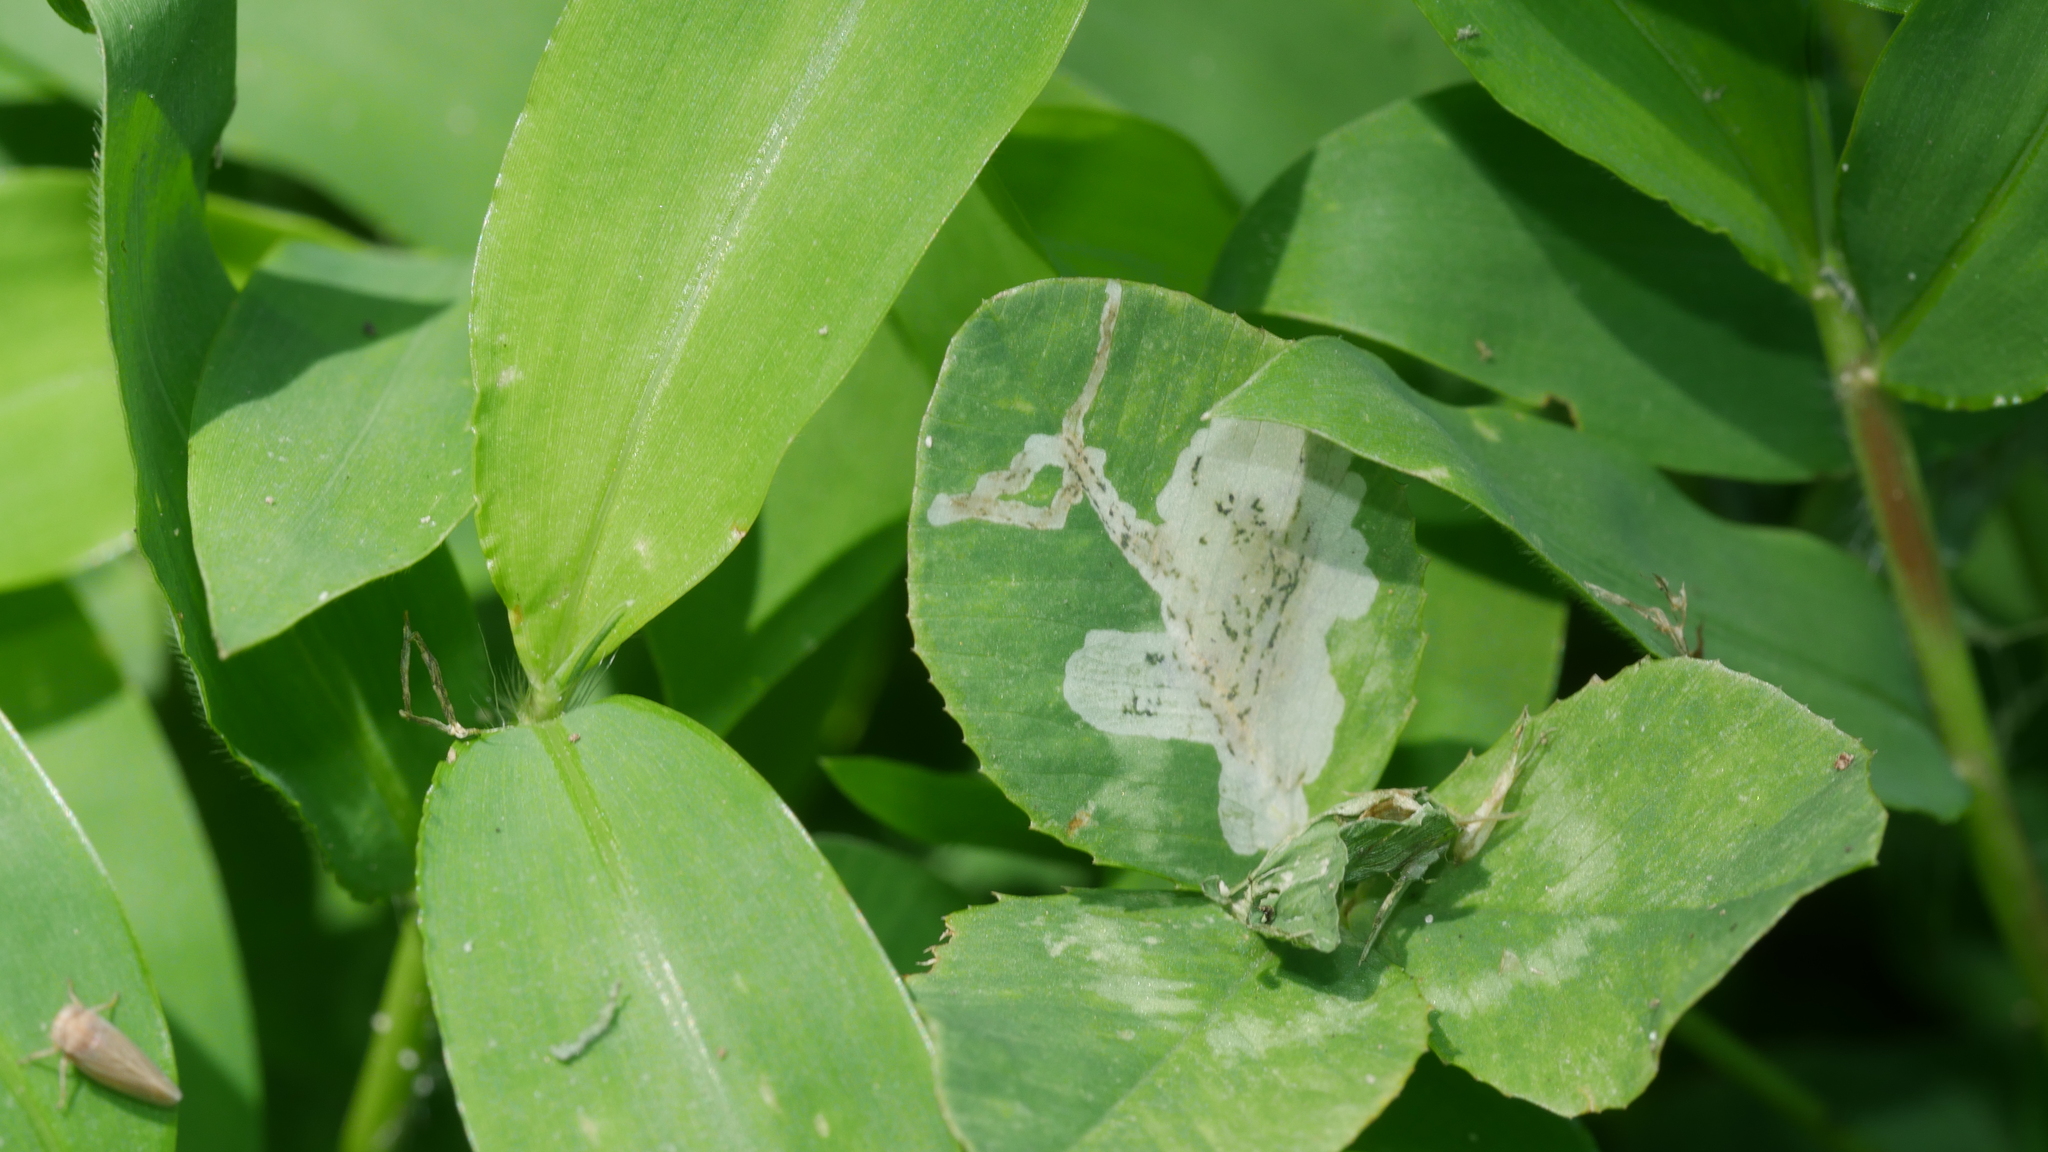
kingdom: Animalia
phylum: Arthropoda
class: Insecta
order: Diptera
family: Agromyzidae
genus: Liriomyza
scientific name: Liriomyza fricki
